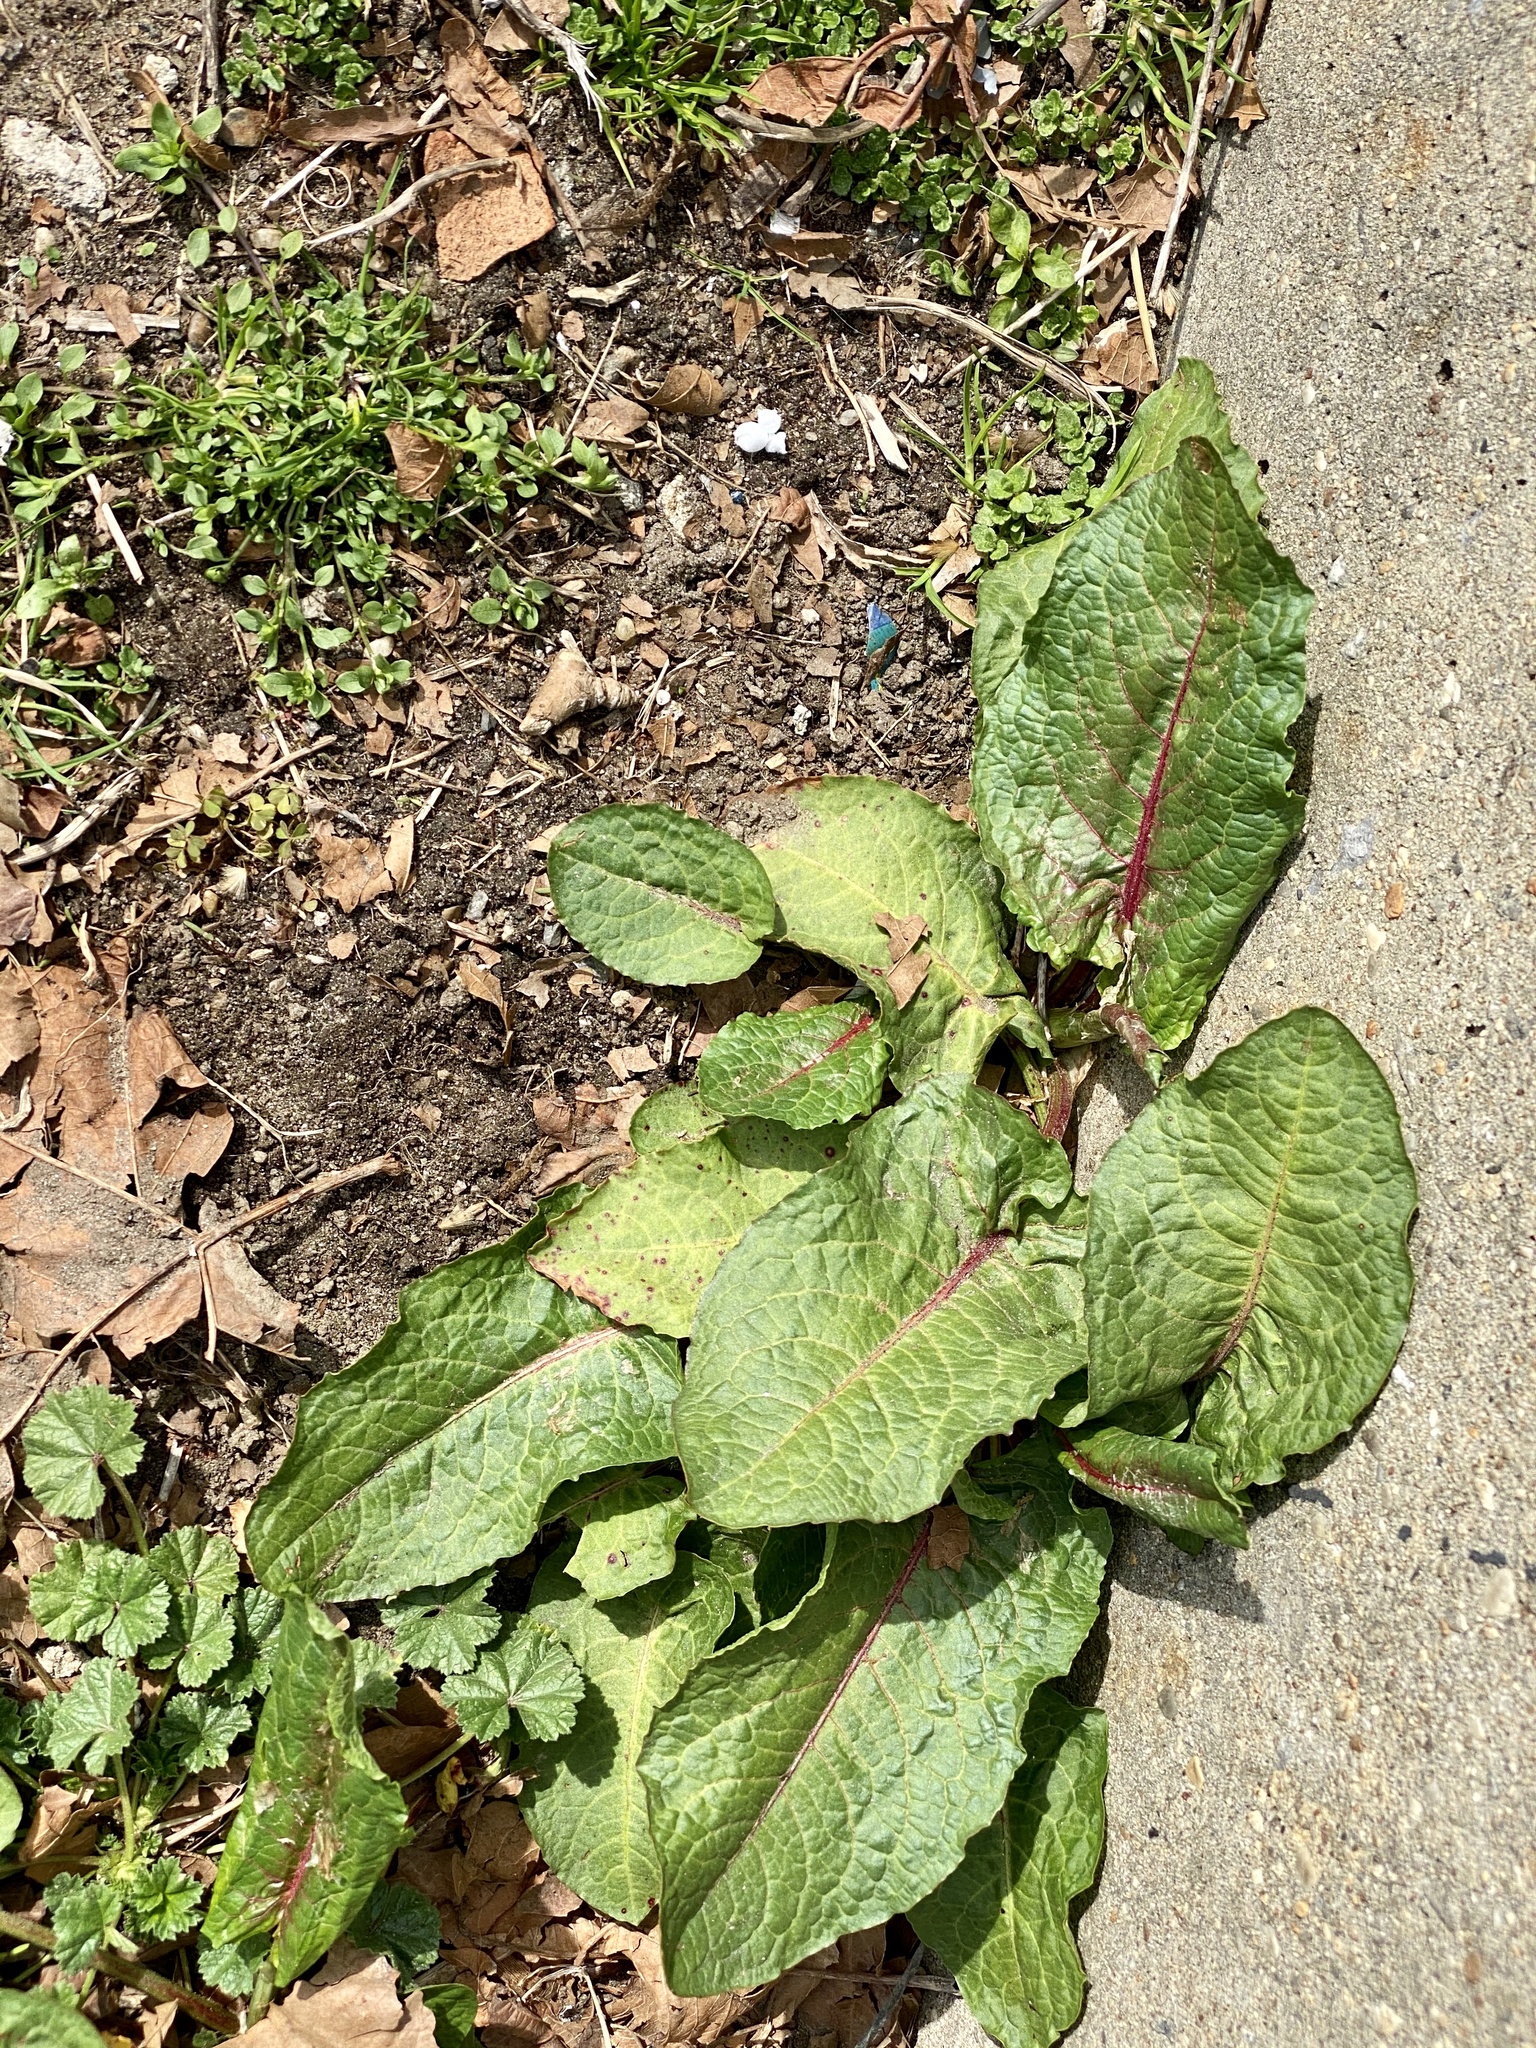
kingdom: Plantae
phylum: Tracheophyta
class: Magnoliopsida
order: Caryophyllales
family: Polygonaceae
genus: Rumex
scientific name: Rumex obtusifolius
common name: Bitter dock
